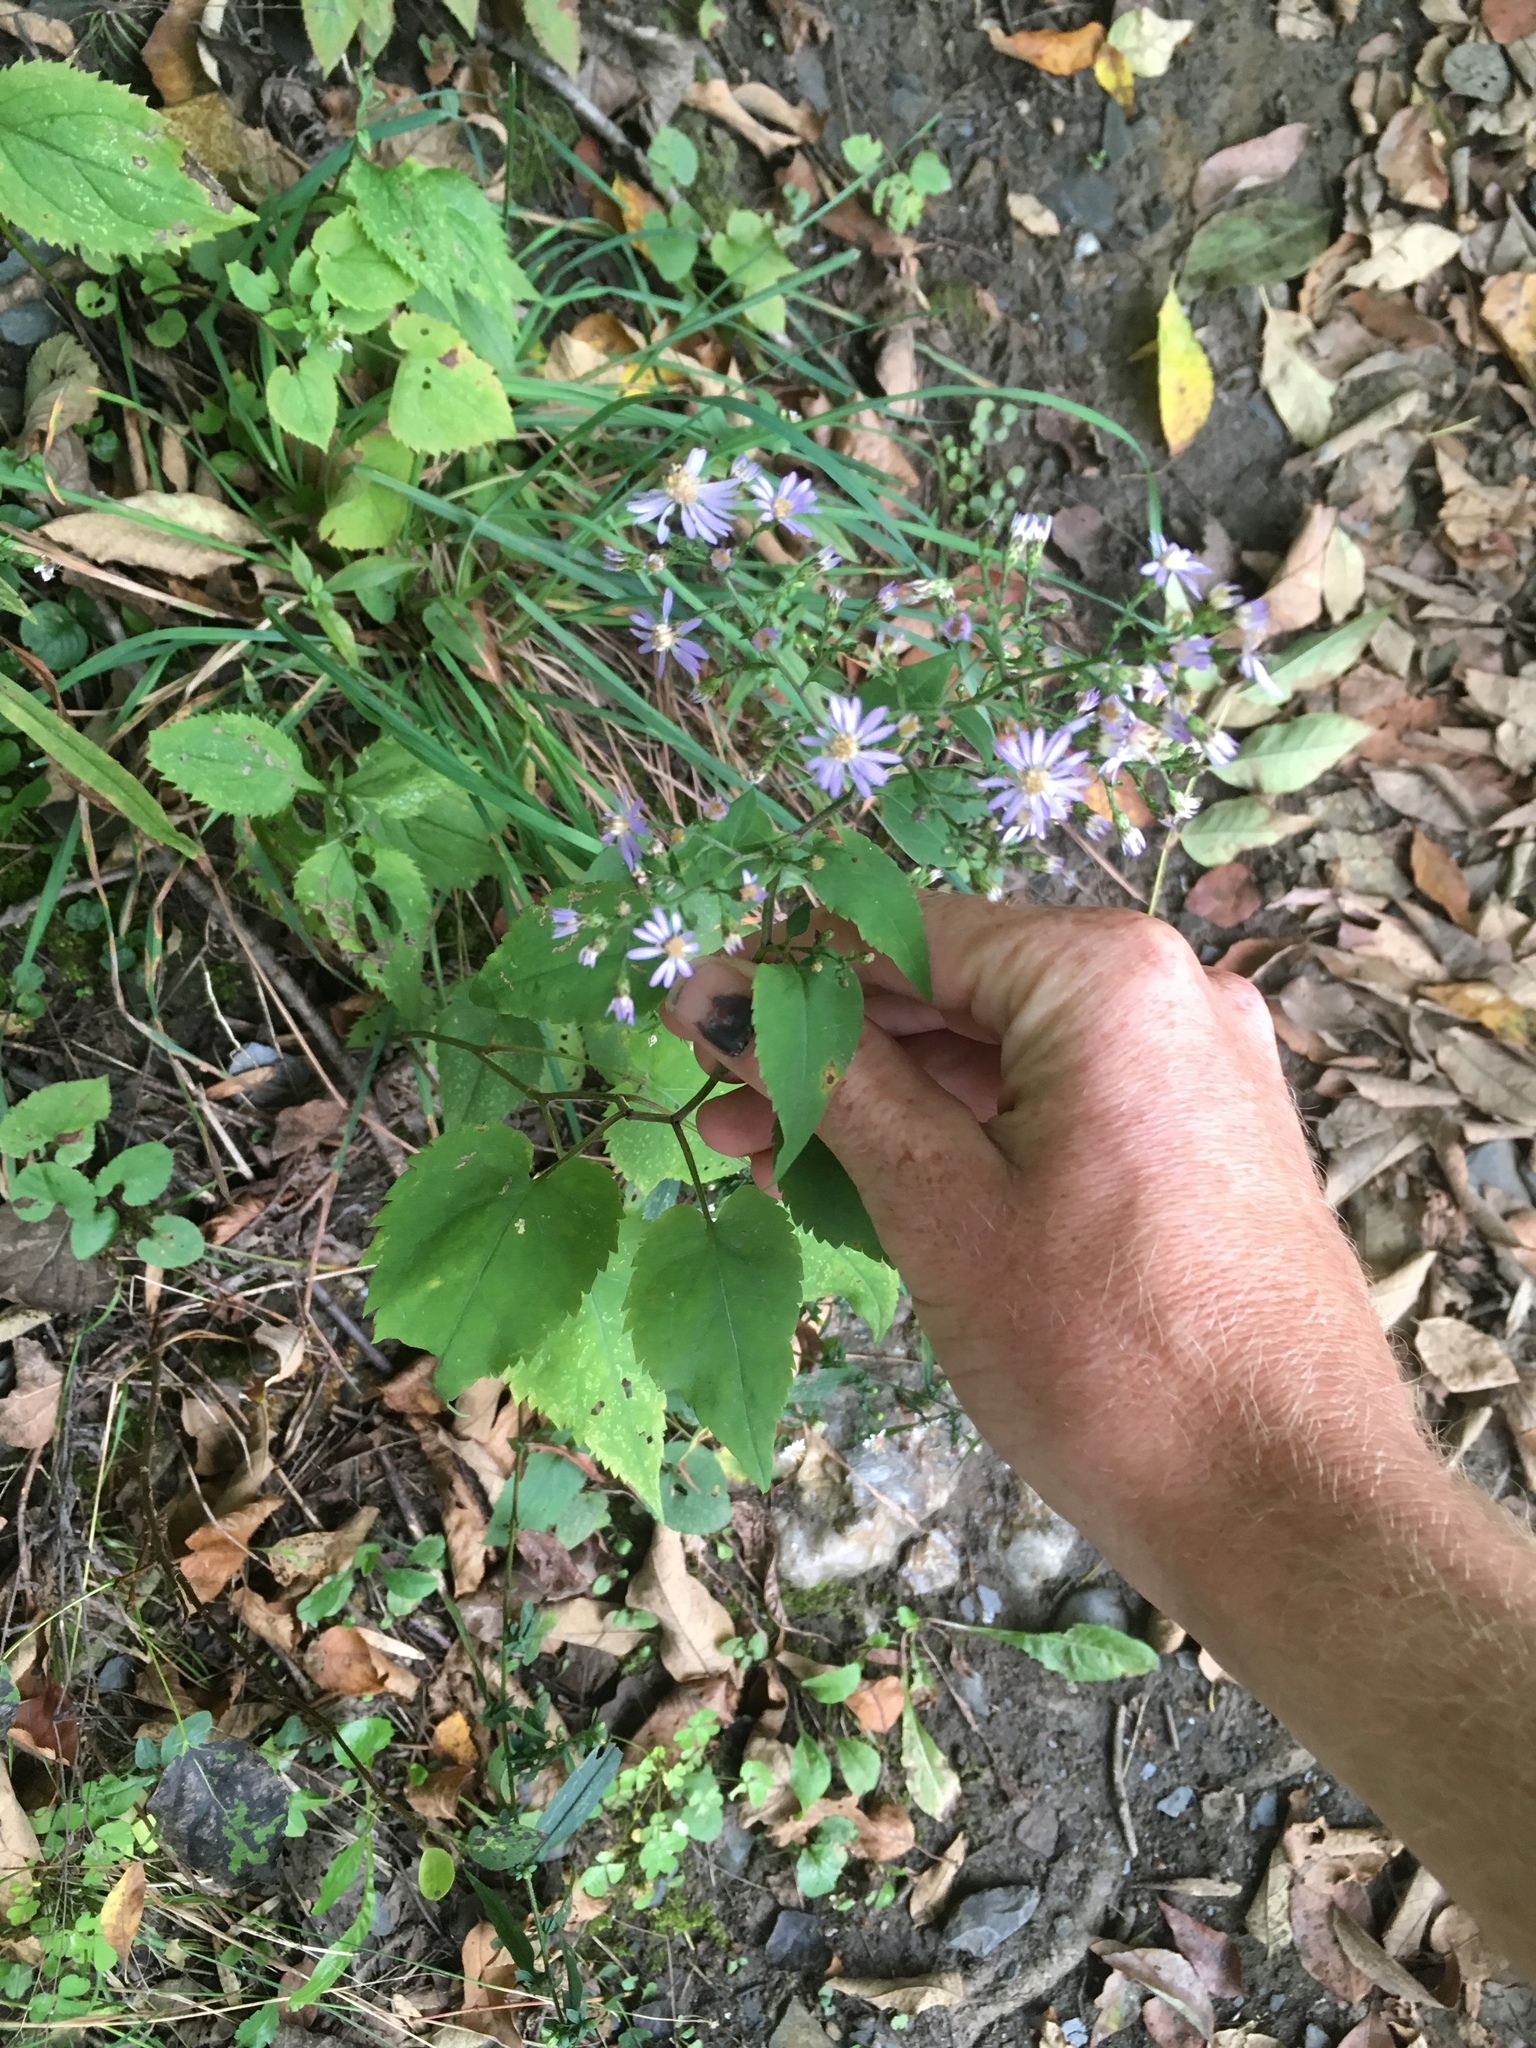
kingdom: Plantae
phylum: Tracheophyta
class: Magnoliopsida
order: Asterales
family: Asteraceae
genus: Symphyotrichum
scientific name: Symphyotrichum cordifolium
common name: Beeweed
